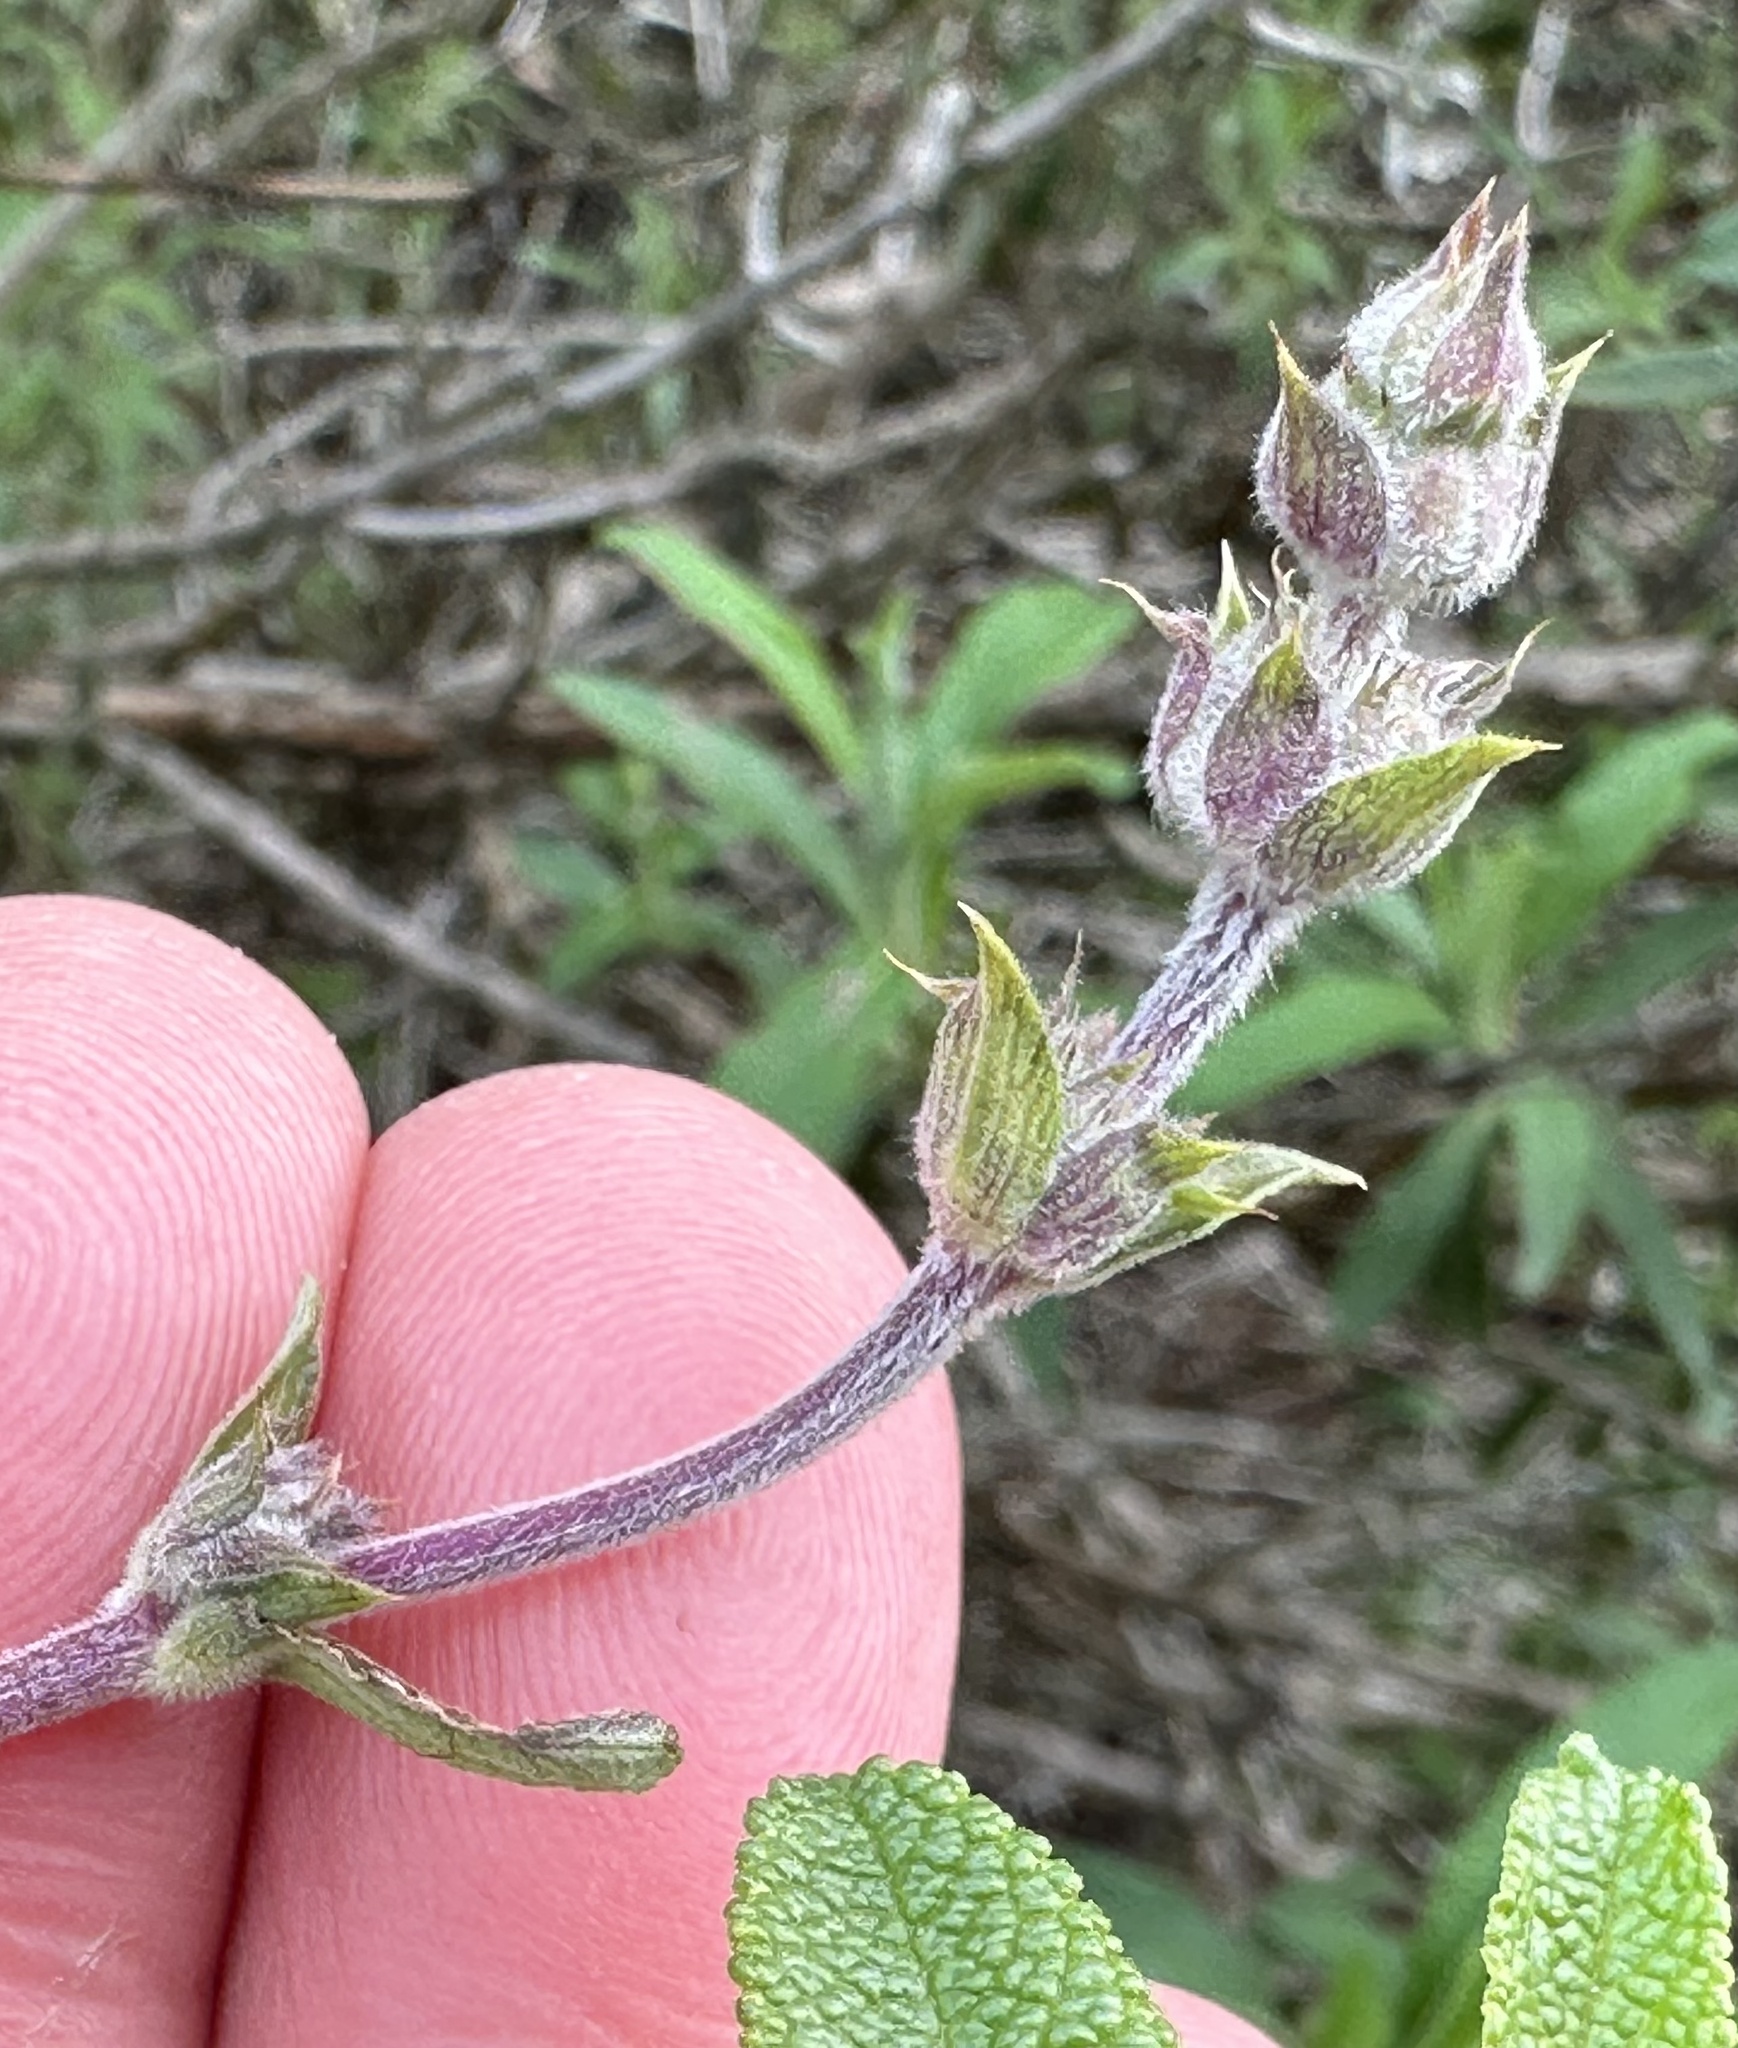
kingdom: Plantae
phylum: Tracheophyta
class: Magnoliopsida
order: Lamiales
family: Lamiaceae
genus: Salvia
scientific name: Salvia mellifera
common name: Black sage
